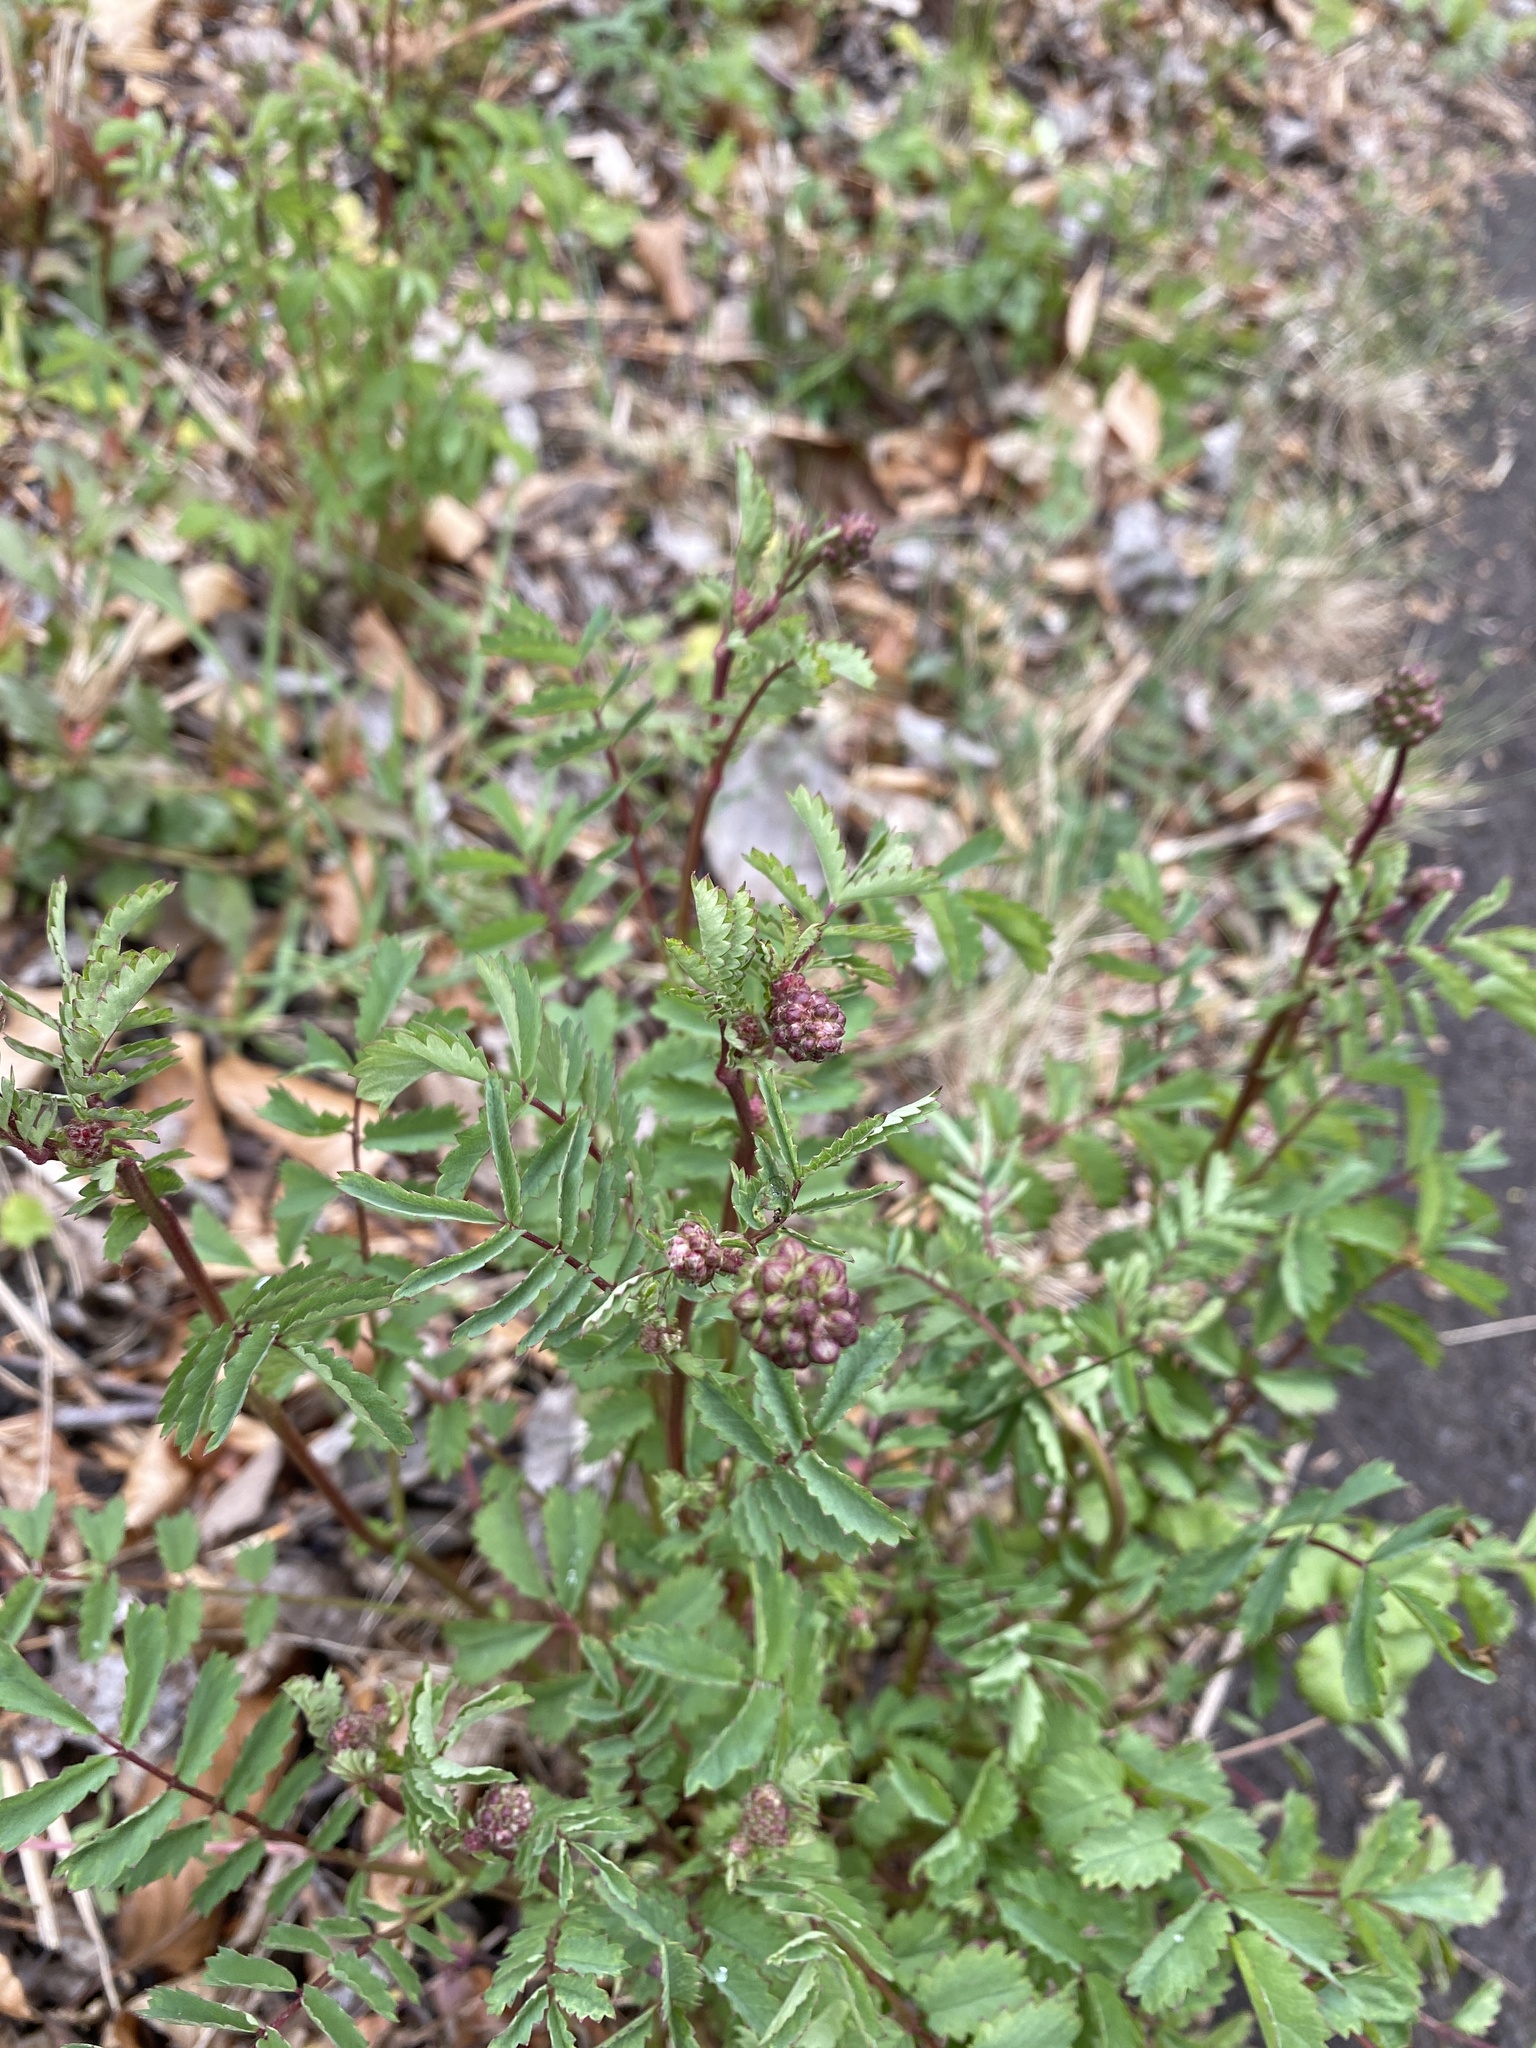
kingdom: Plantae
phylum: Tracheophyta
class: Magnoliopsida
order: Rosales
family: Rosaceae
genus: Poterium
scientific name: Poterium sanguisorba
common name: Salad burnet
